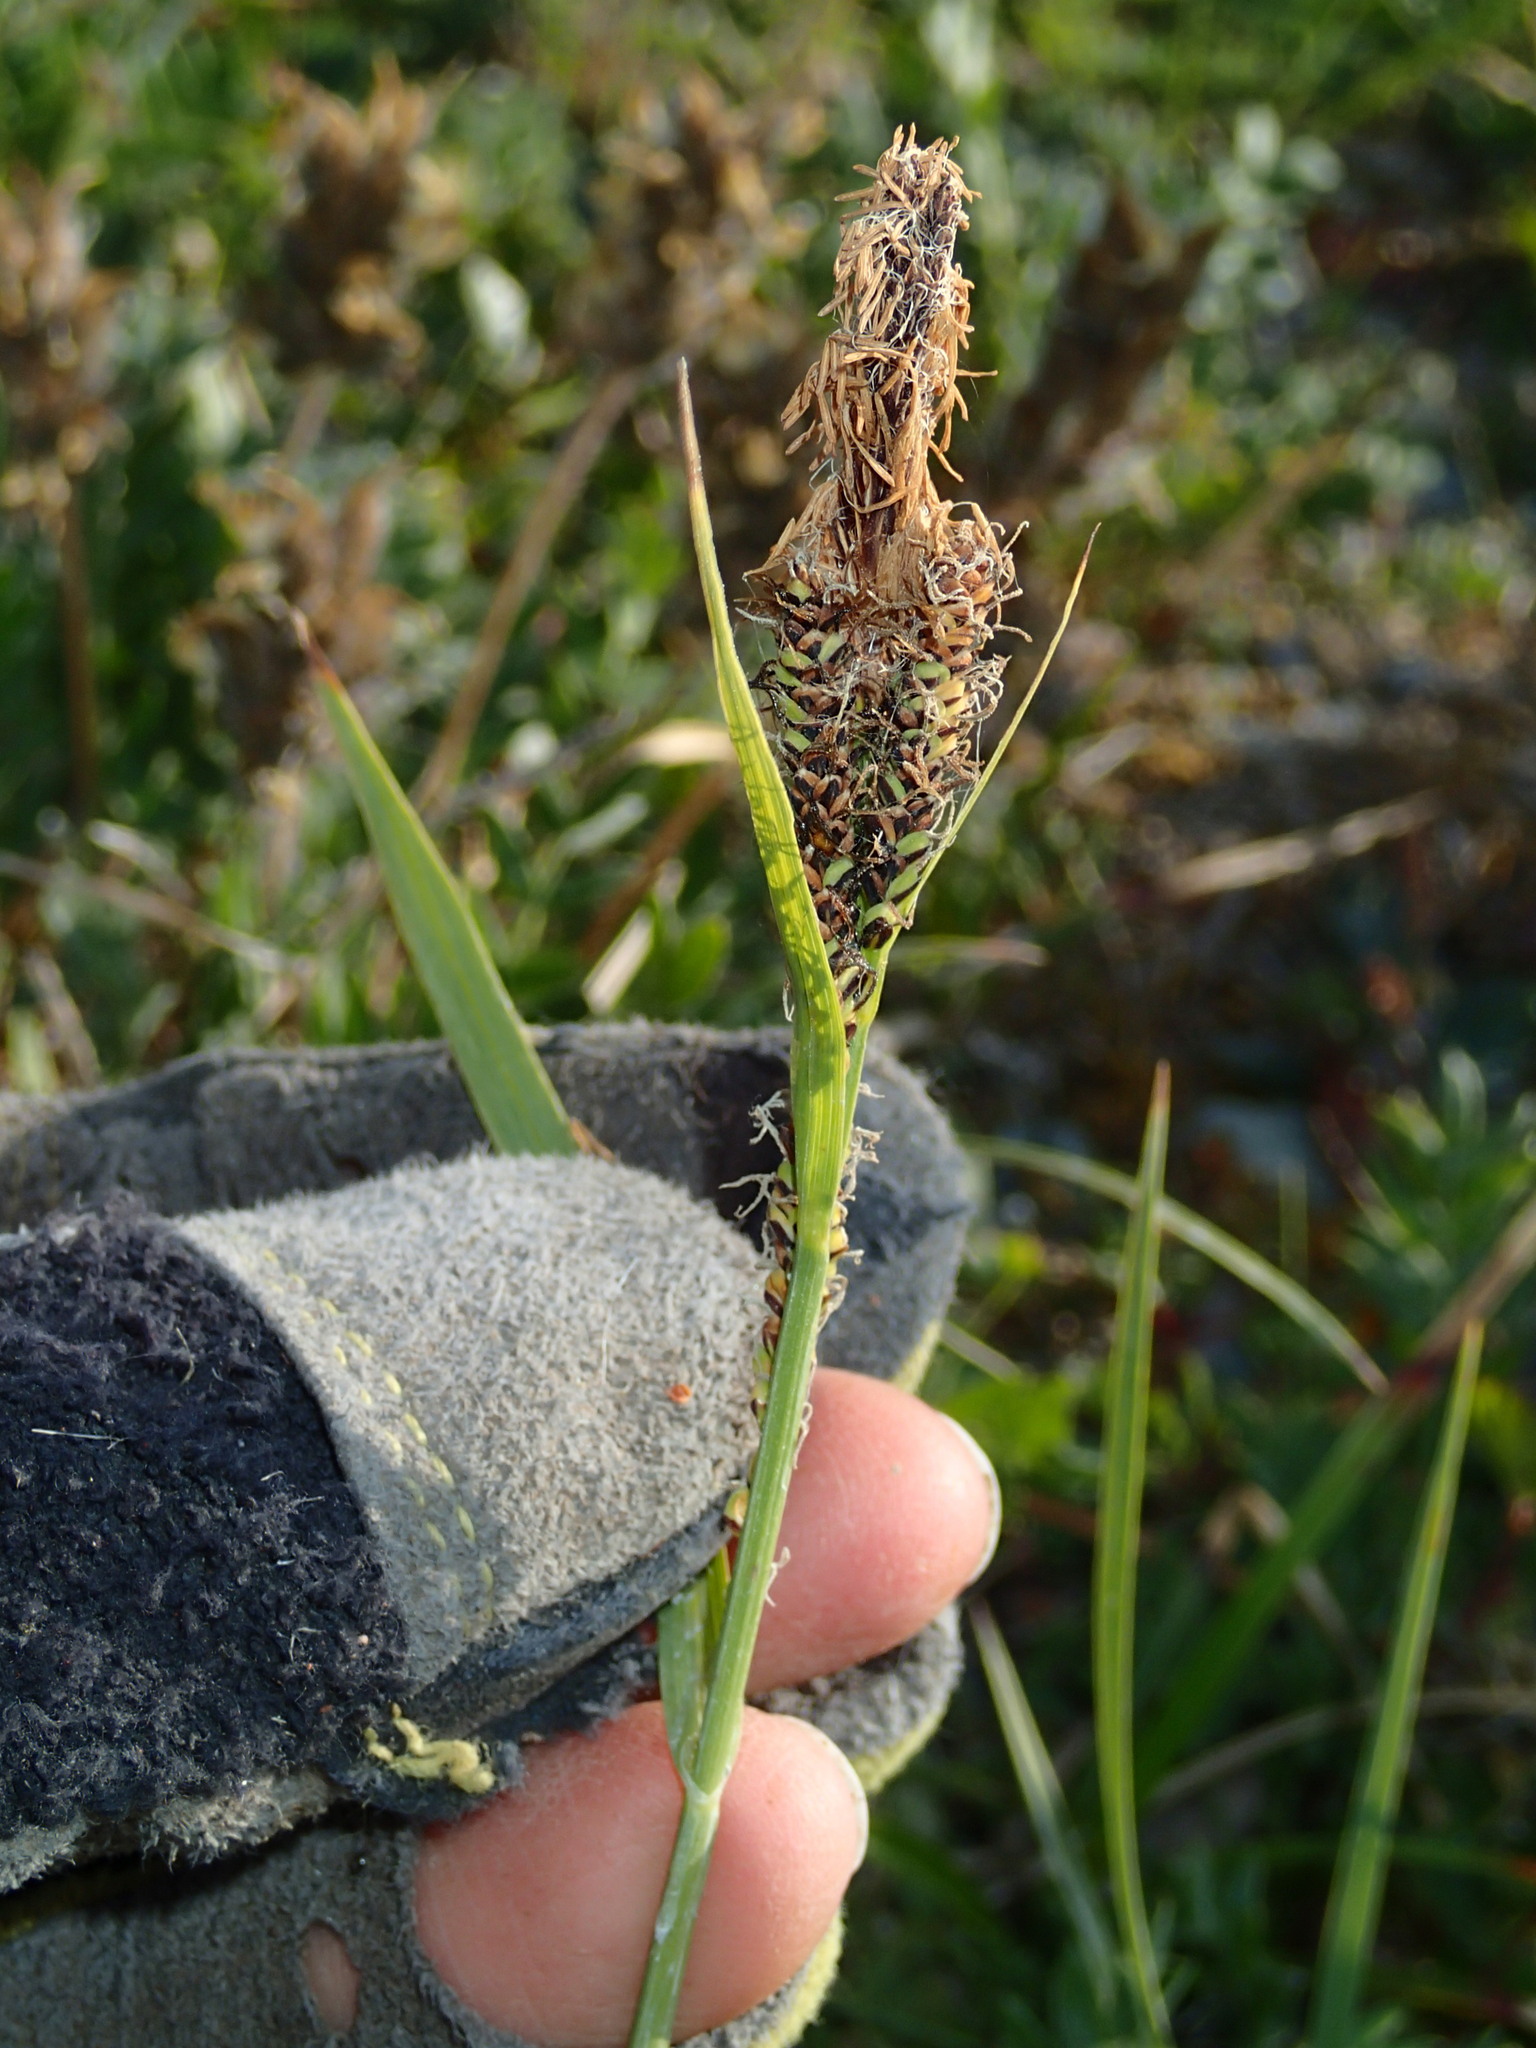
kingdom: Plantae
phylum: Tracheophyta
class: Liliopsida
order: Poales
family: Cyperaceae
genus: Carex
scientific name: Carex aquatilis
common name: Water sedge
